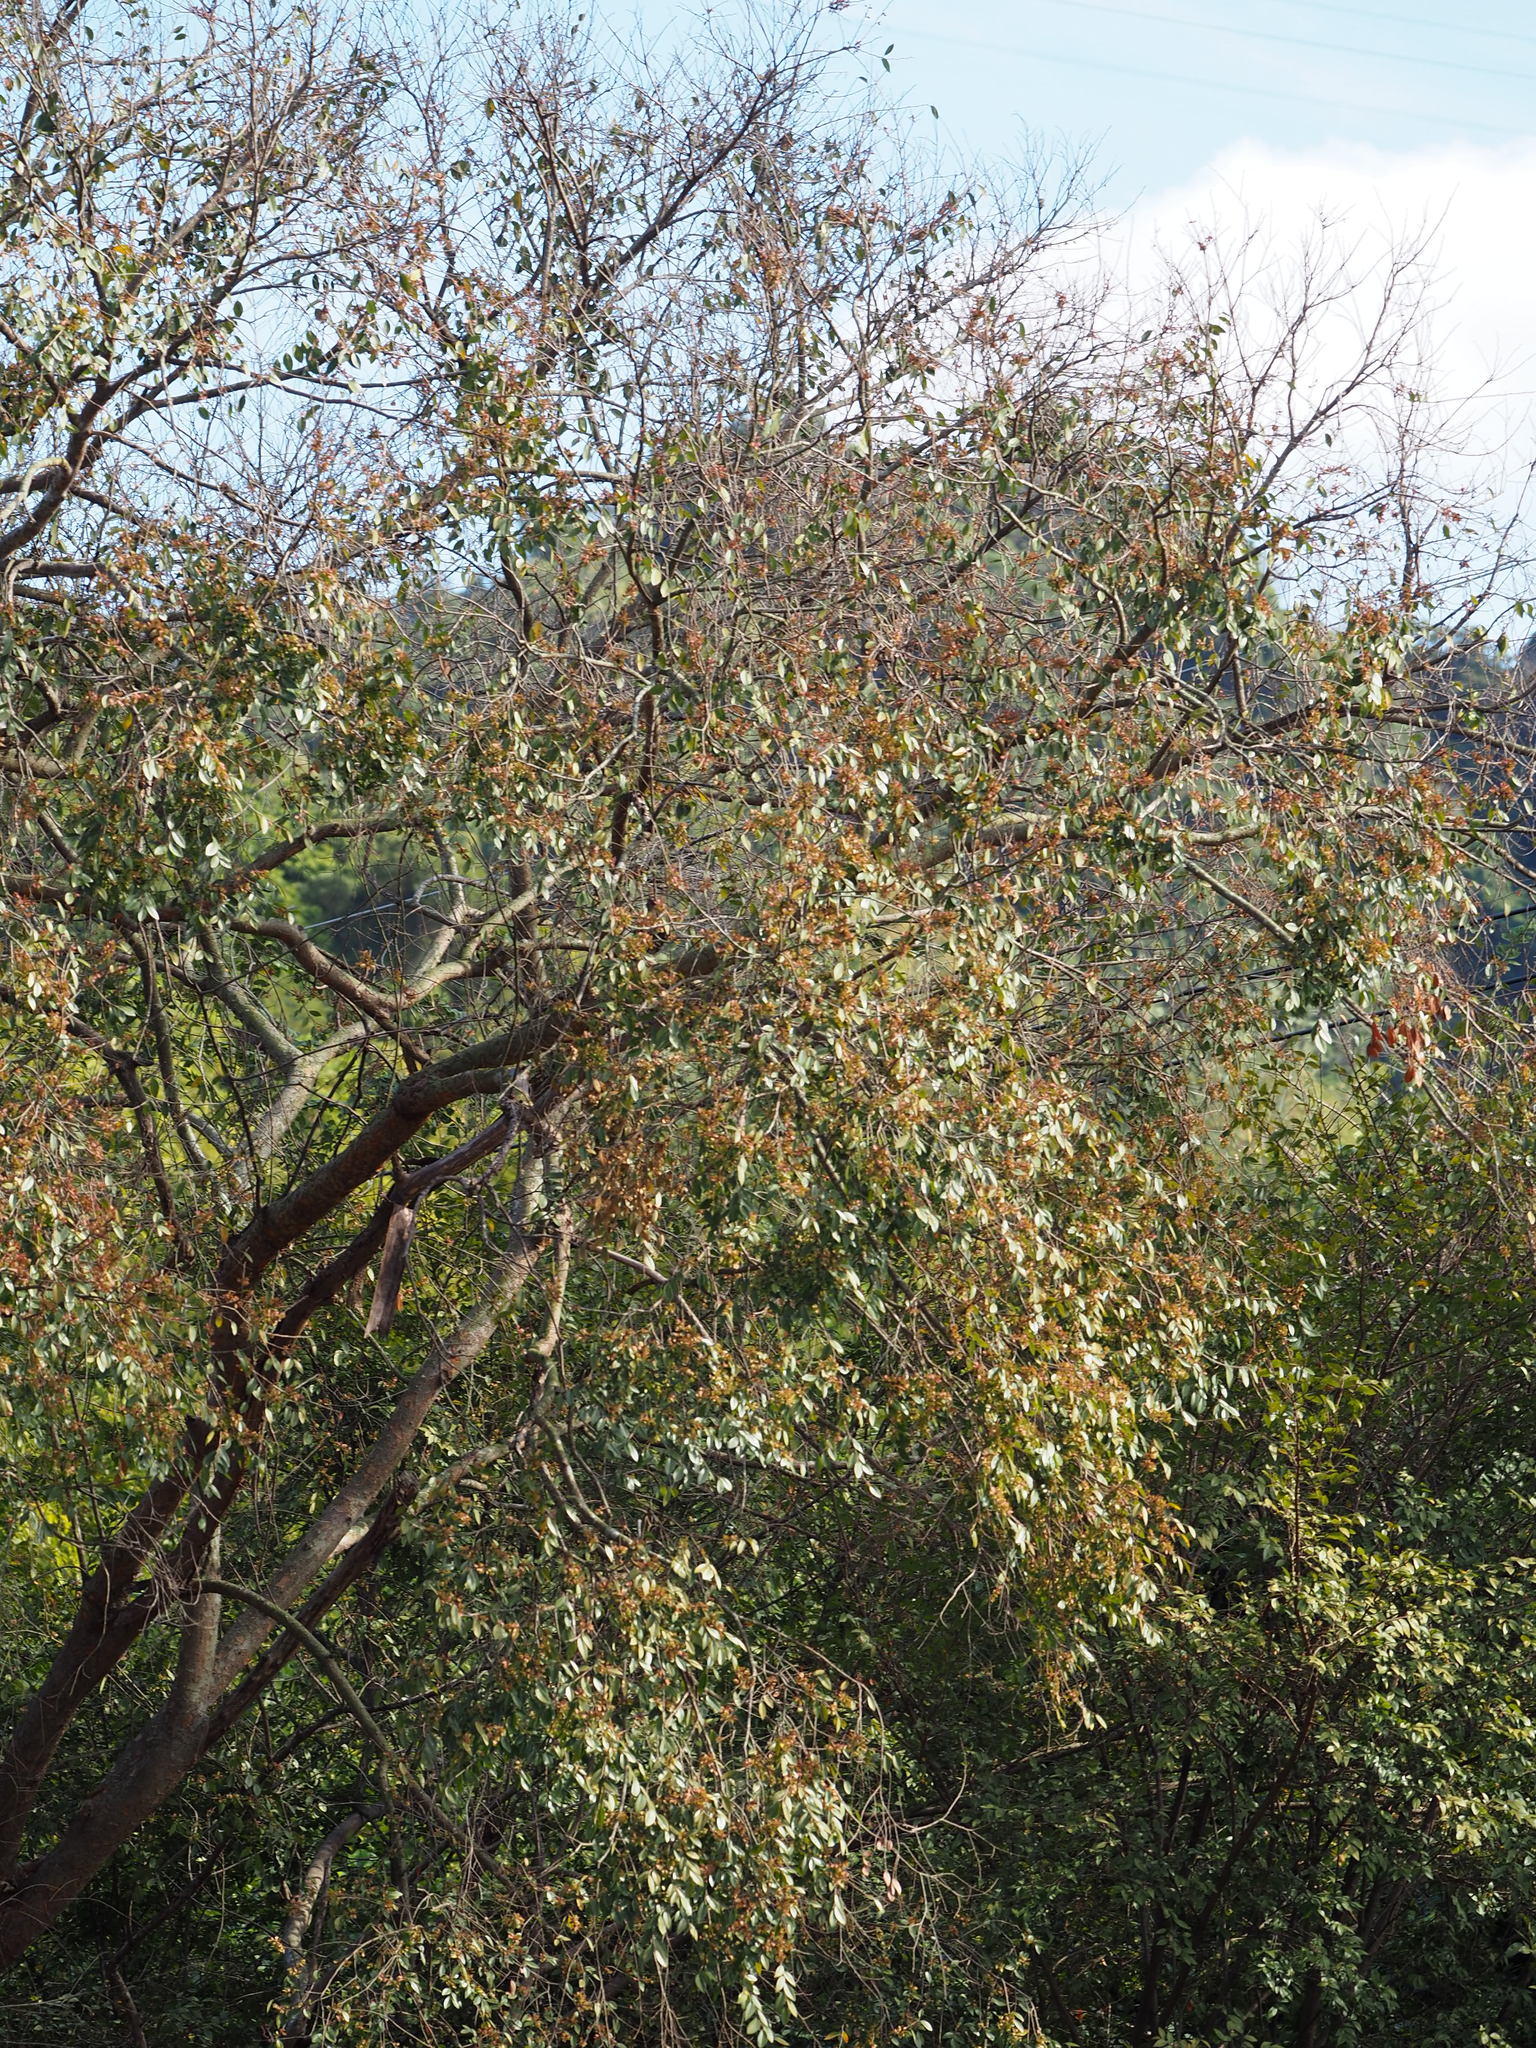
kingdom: Plantae
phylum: Tracheophyta
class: Magnoliopsida
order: Rosales
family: Ulmaceae
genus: Ulmus
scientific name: Ulmus parvifolia
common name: Chinese elm
